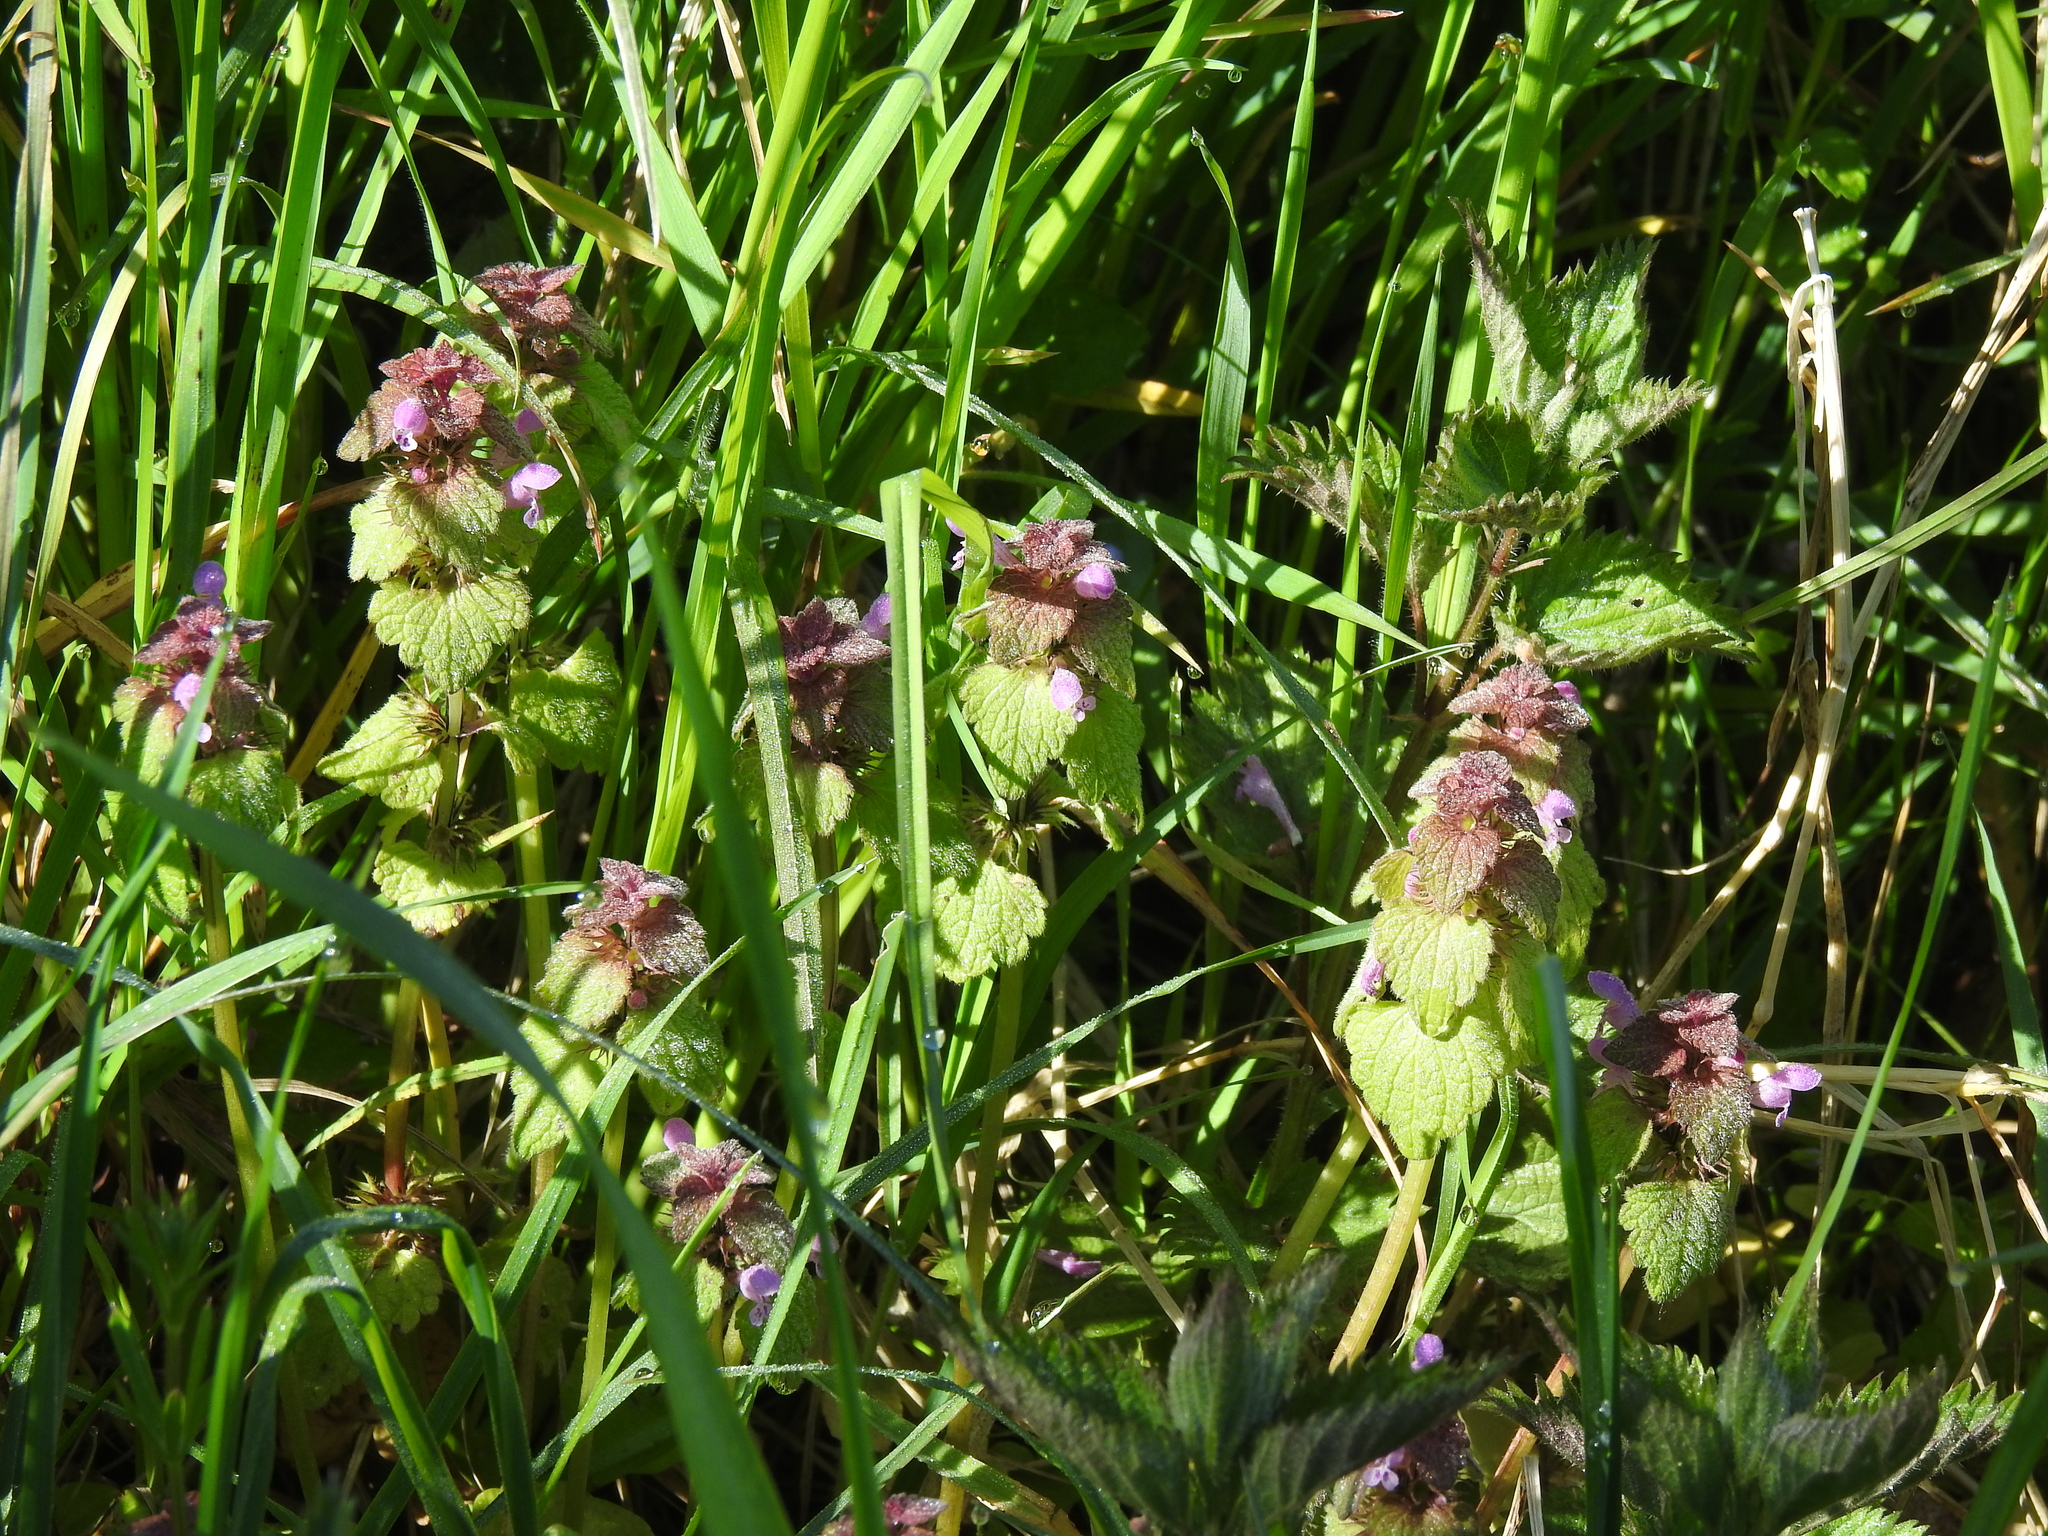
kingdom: Plantae
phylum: Tracheophyta
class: Magnoliopsida
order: Lamiales
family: Lamiaceae
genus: Lamium
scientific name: Lamium purpureum
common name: Red dead-nettle
